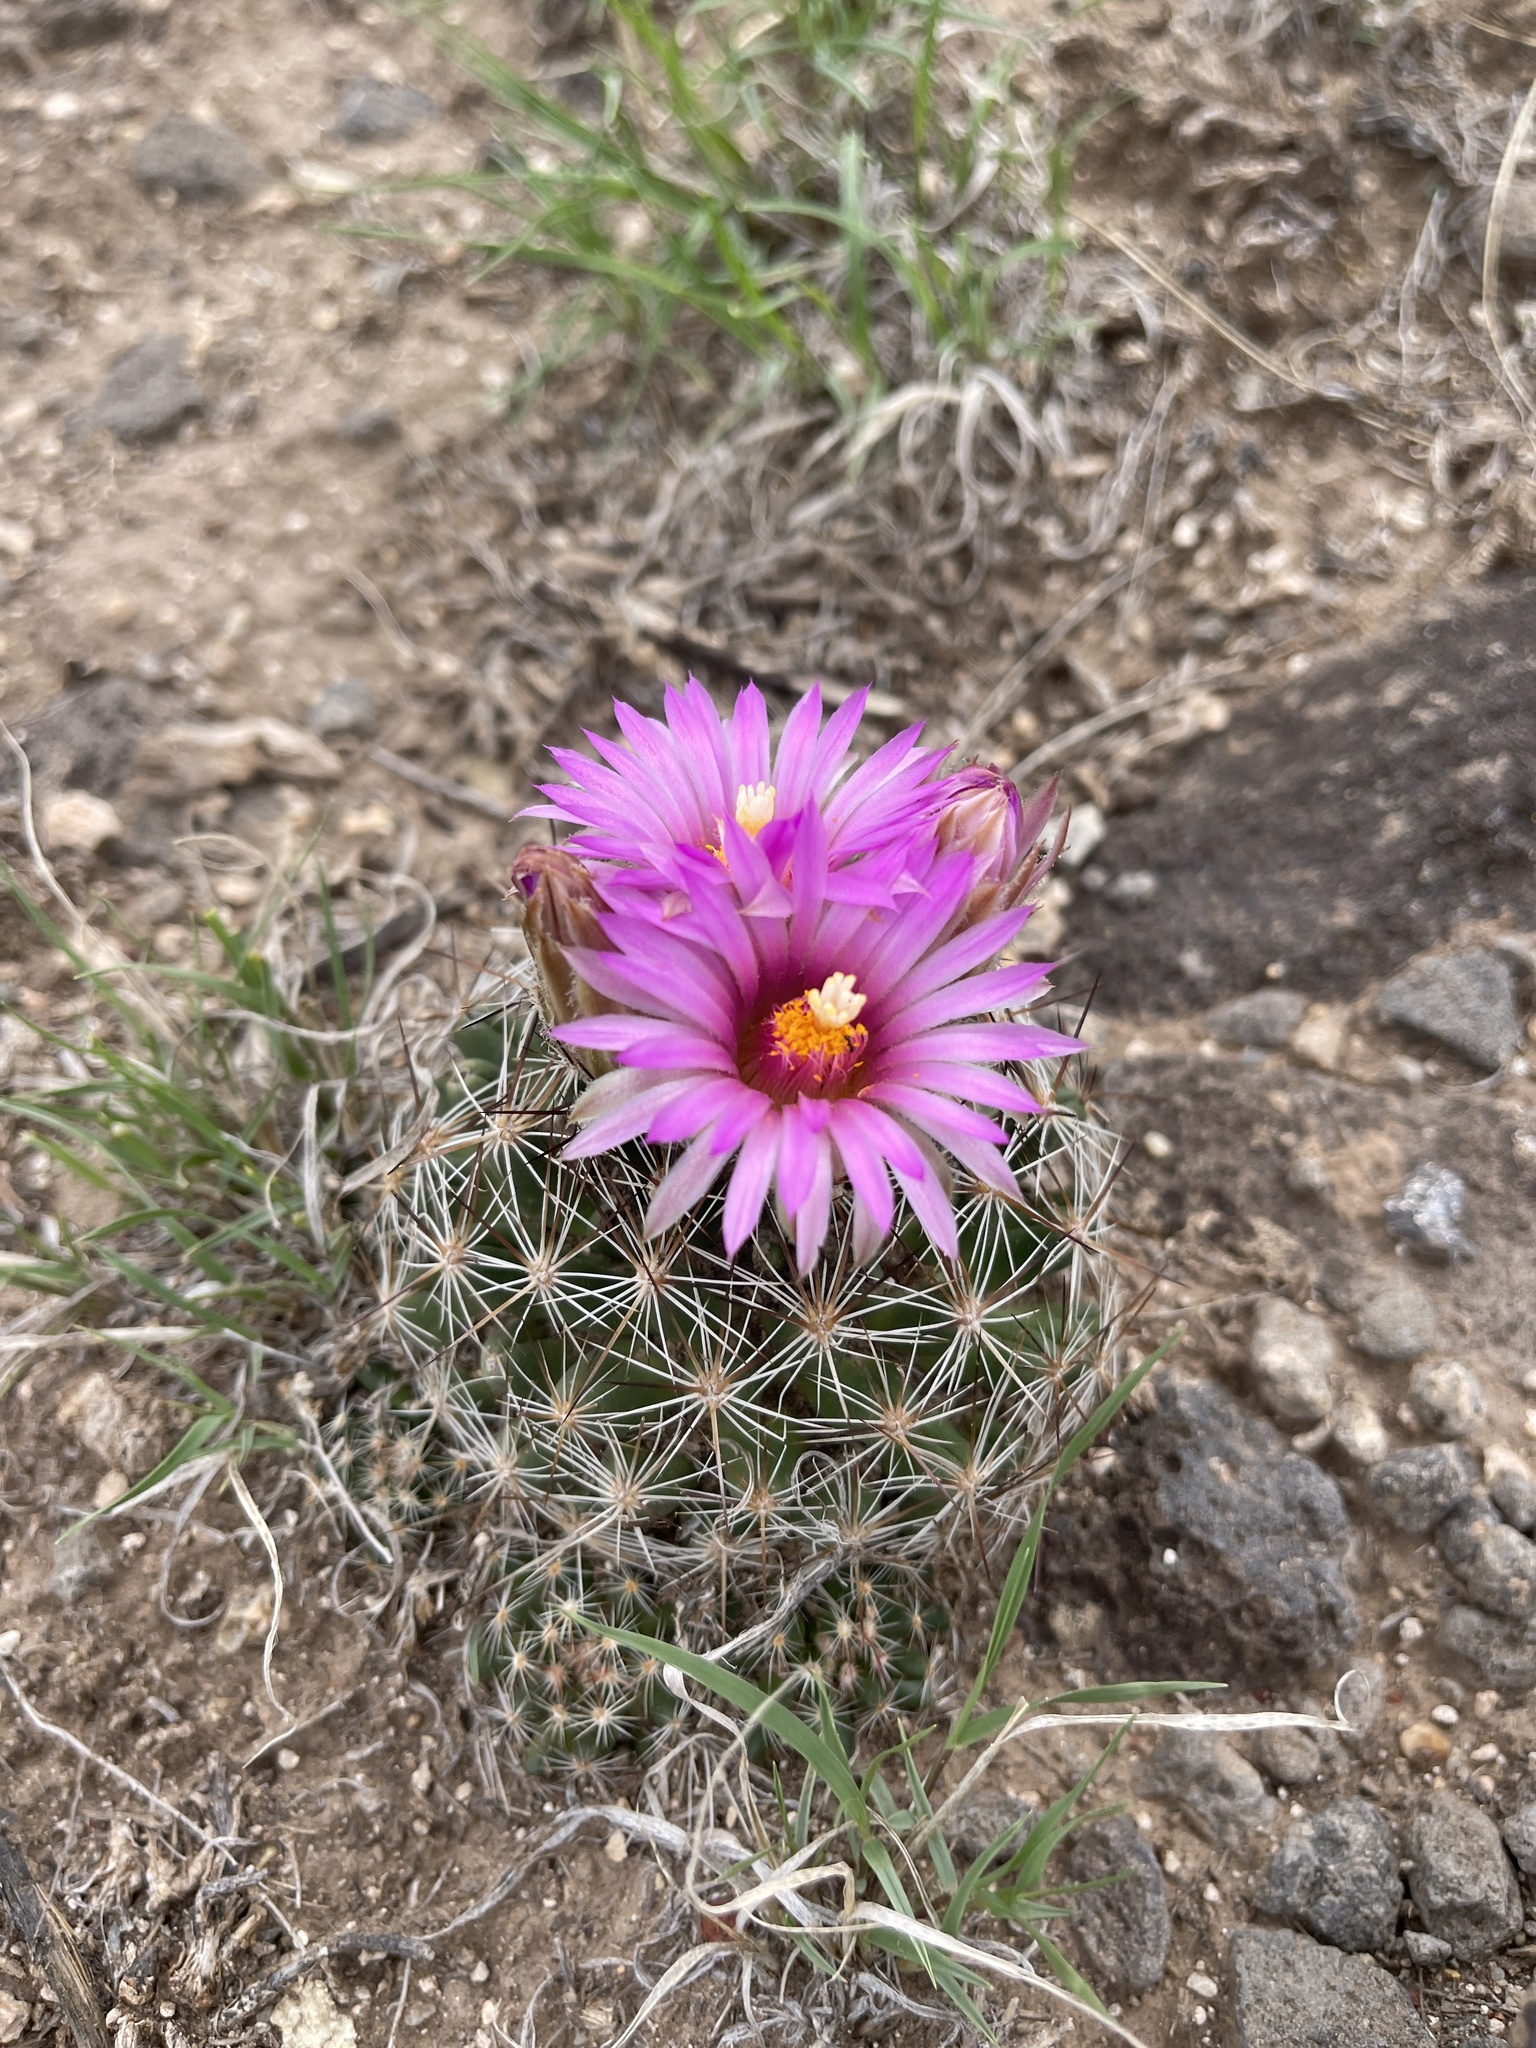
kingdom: Plantae
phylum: Tracheophyta
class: Magnoliopsida
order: Caryophyllales
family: Cactaceae
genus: Pelecyphora
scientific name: Pelecyphora vivipara
